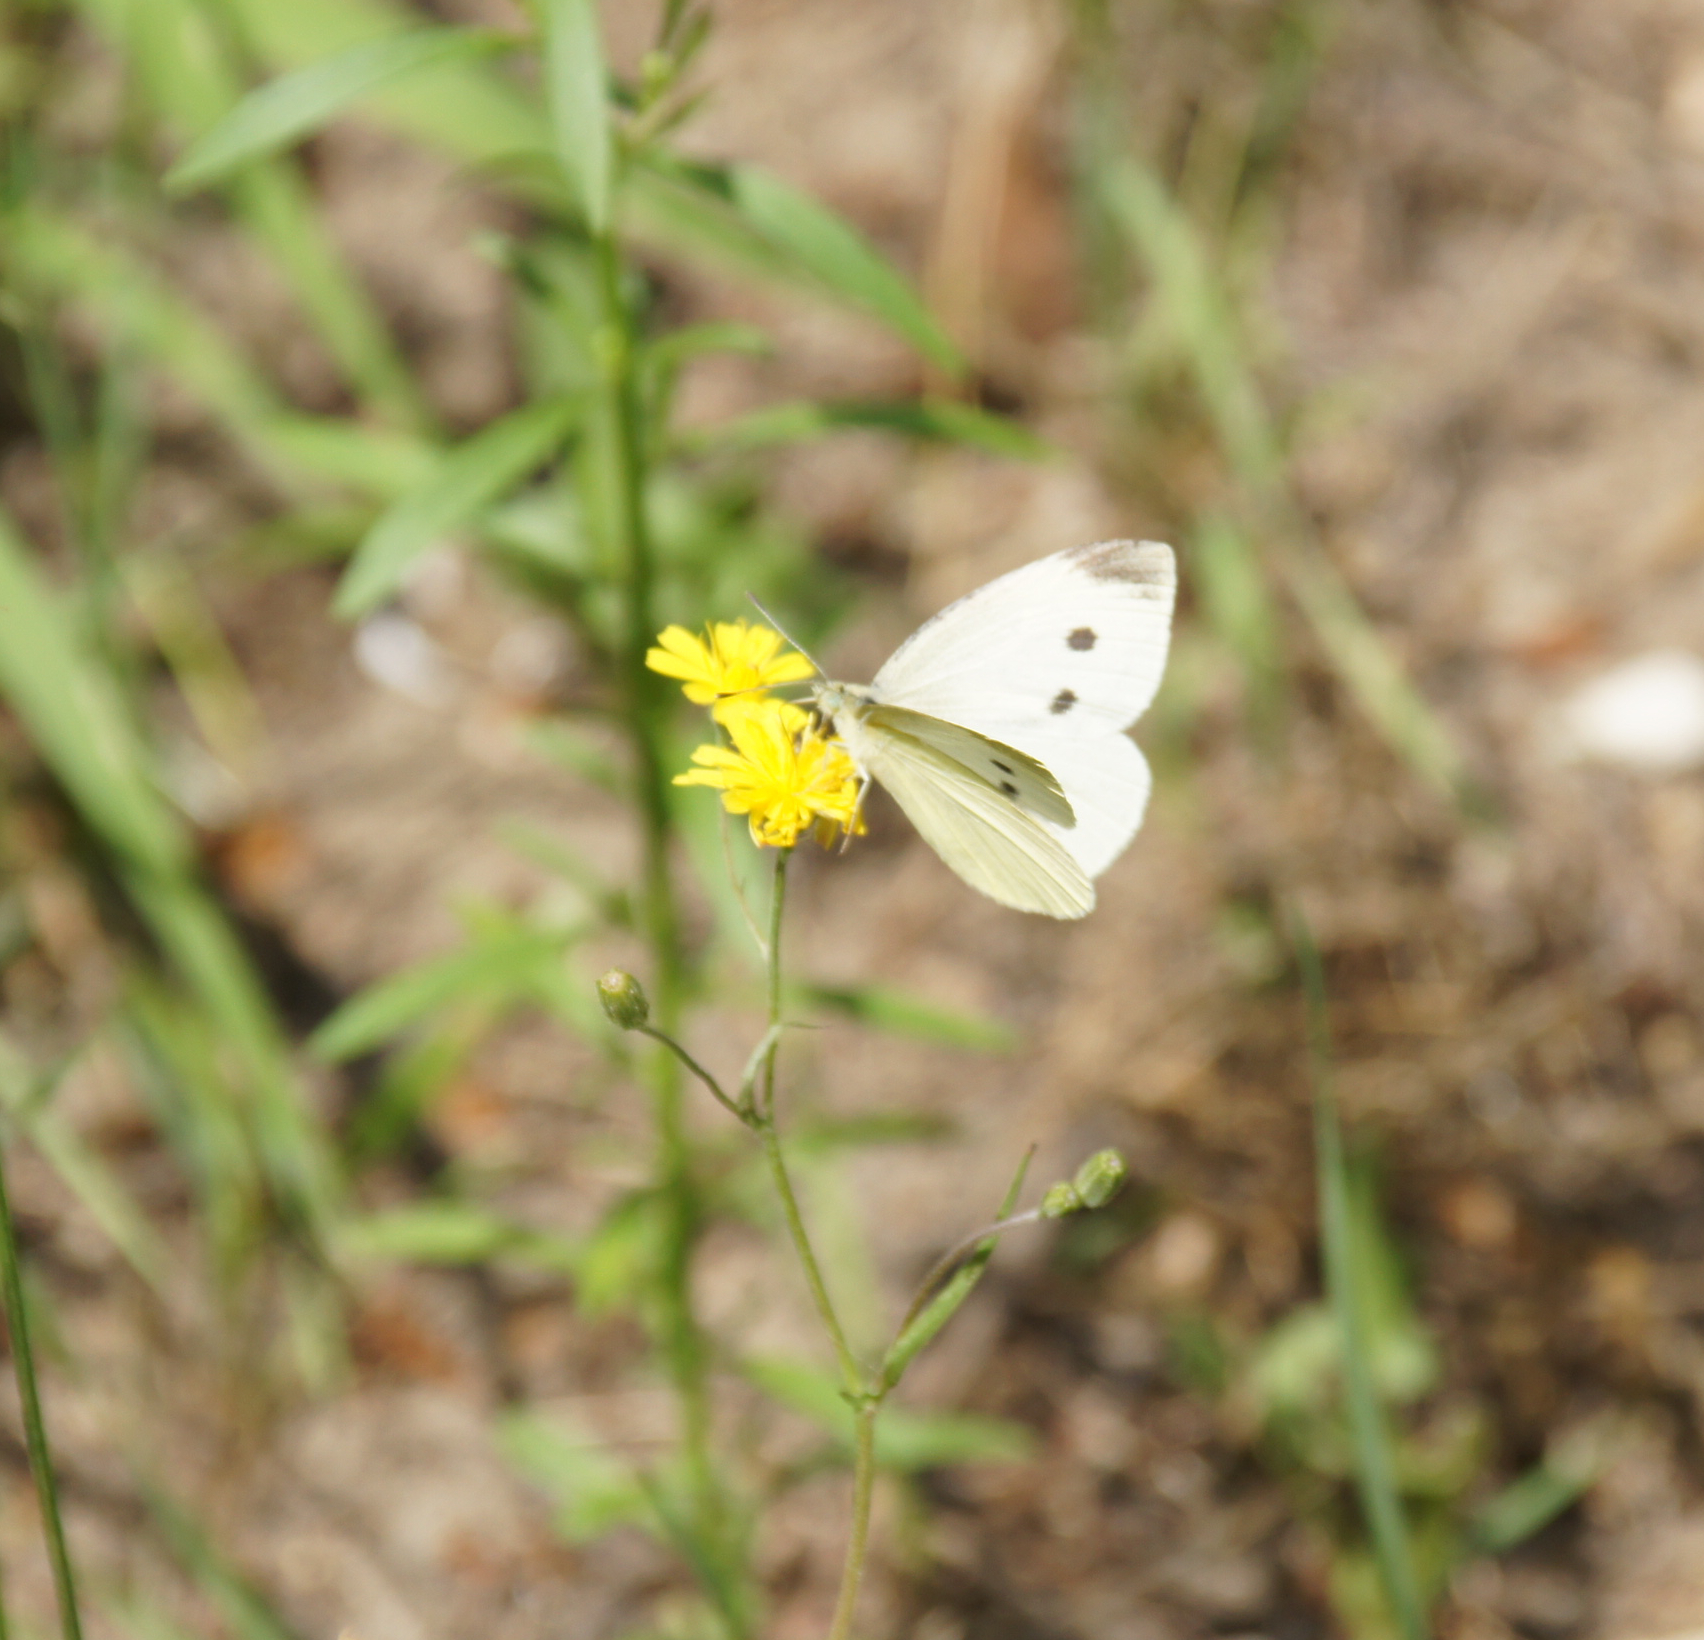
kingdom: Animalia
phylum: Arthropoda
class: Insecta
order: Lepidoptera
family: Pieridae
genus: Pieris
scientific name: Pieris rapae
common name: Small white
